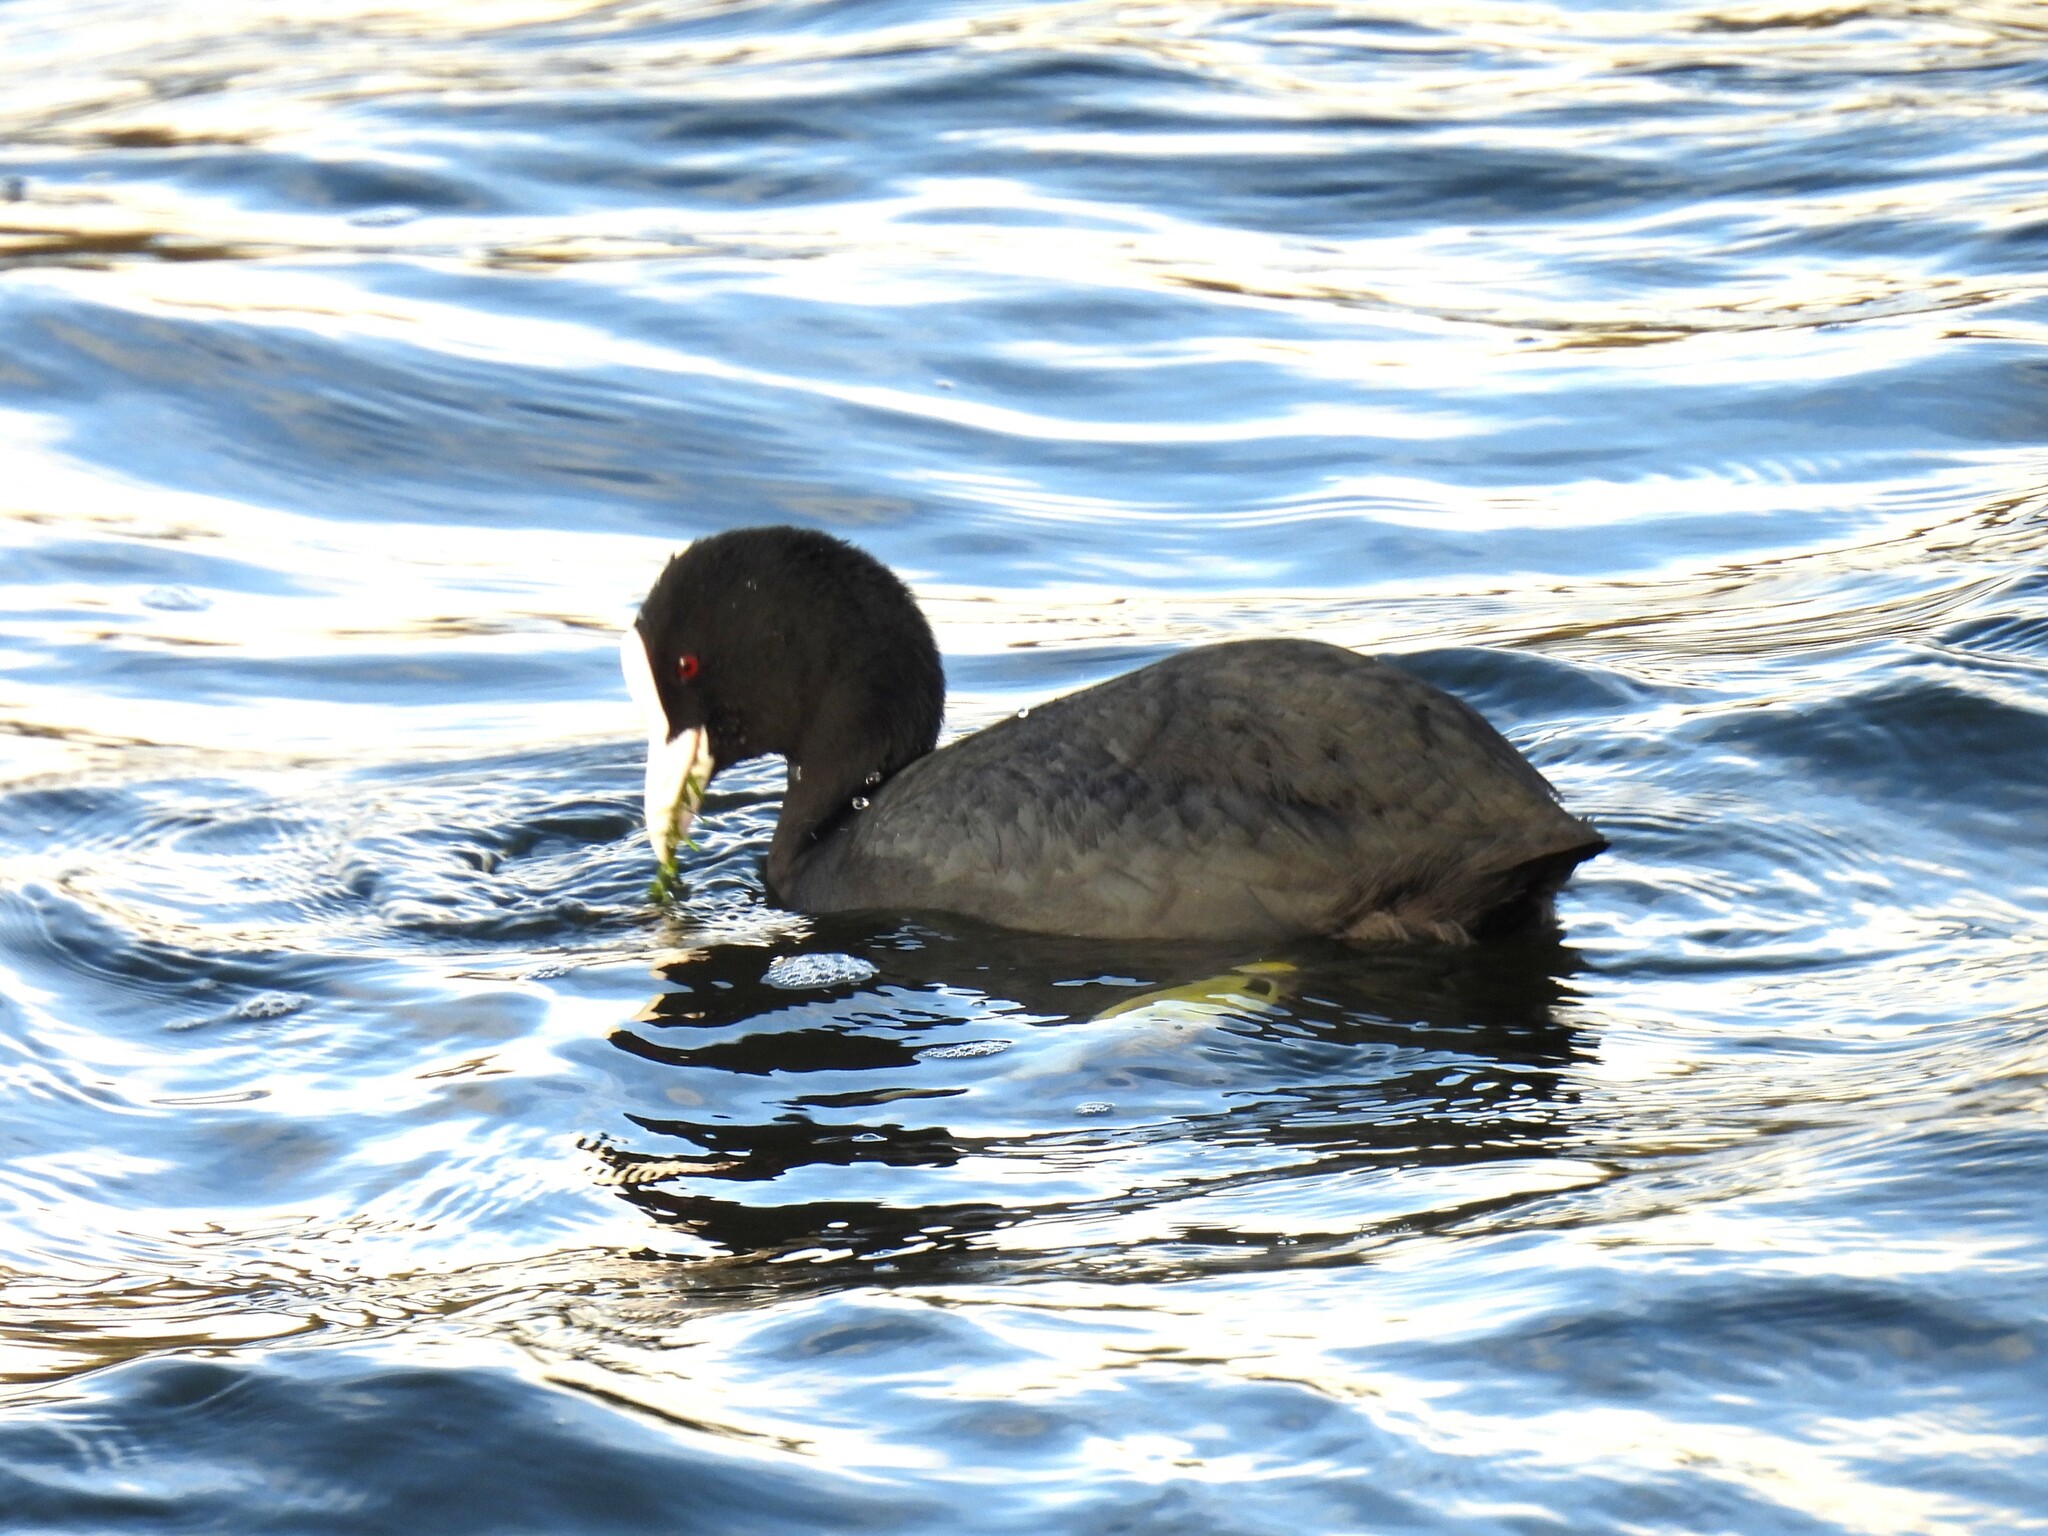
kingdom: Animalia
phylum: Chordata
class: Aves
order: Gruiformes
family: Rallidae
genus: Fulica
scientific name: Fulica atra
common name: Eurasian coot
